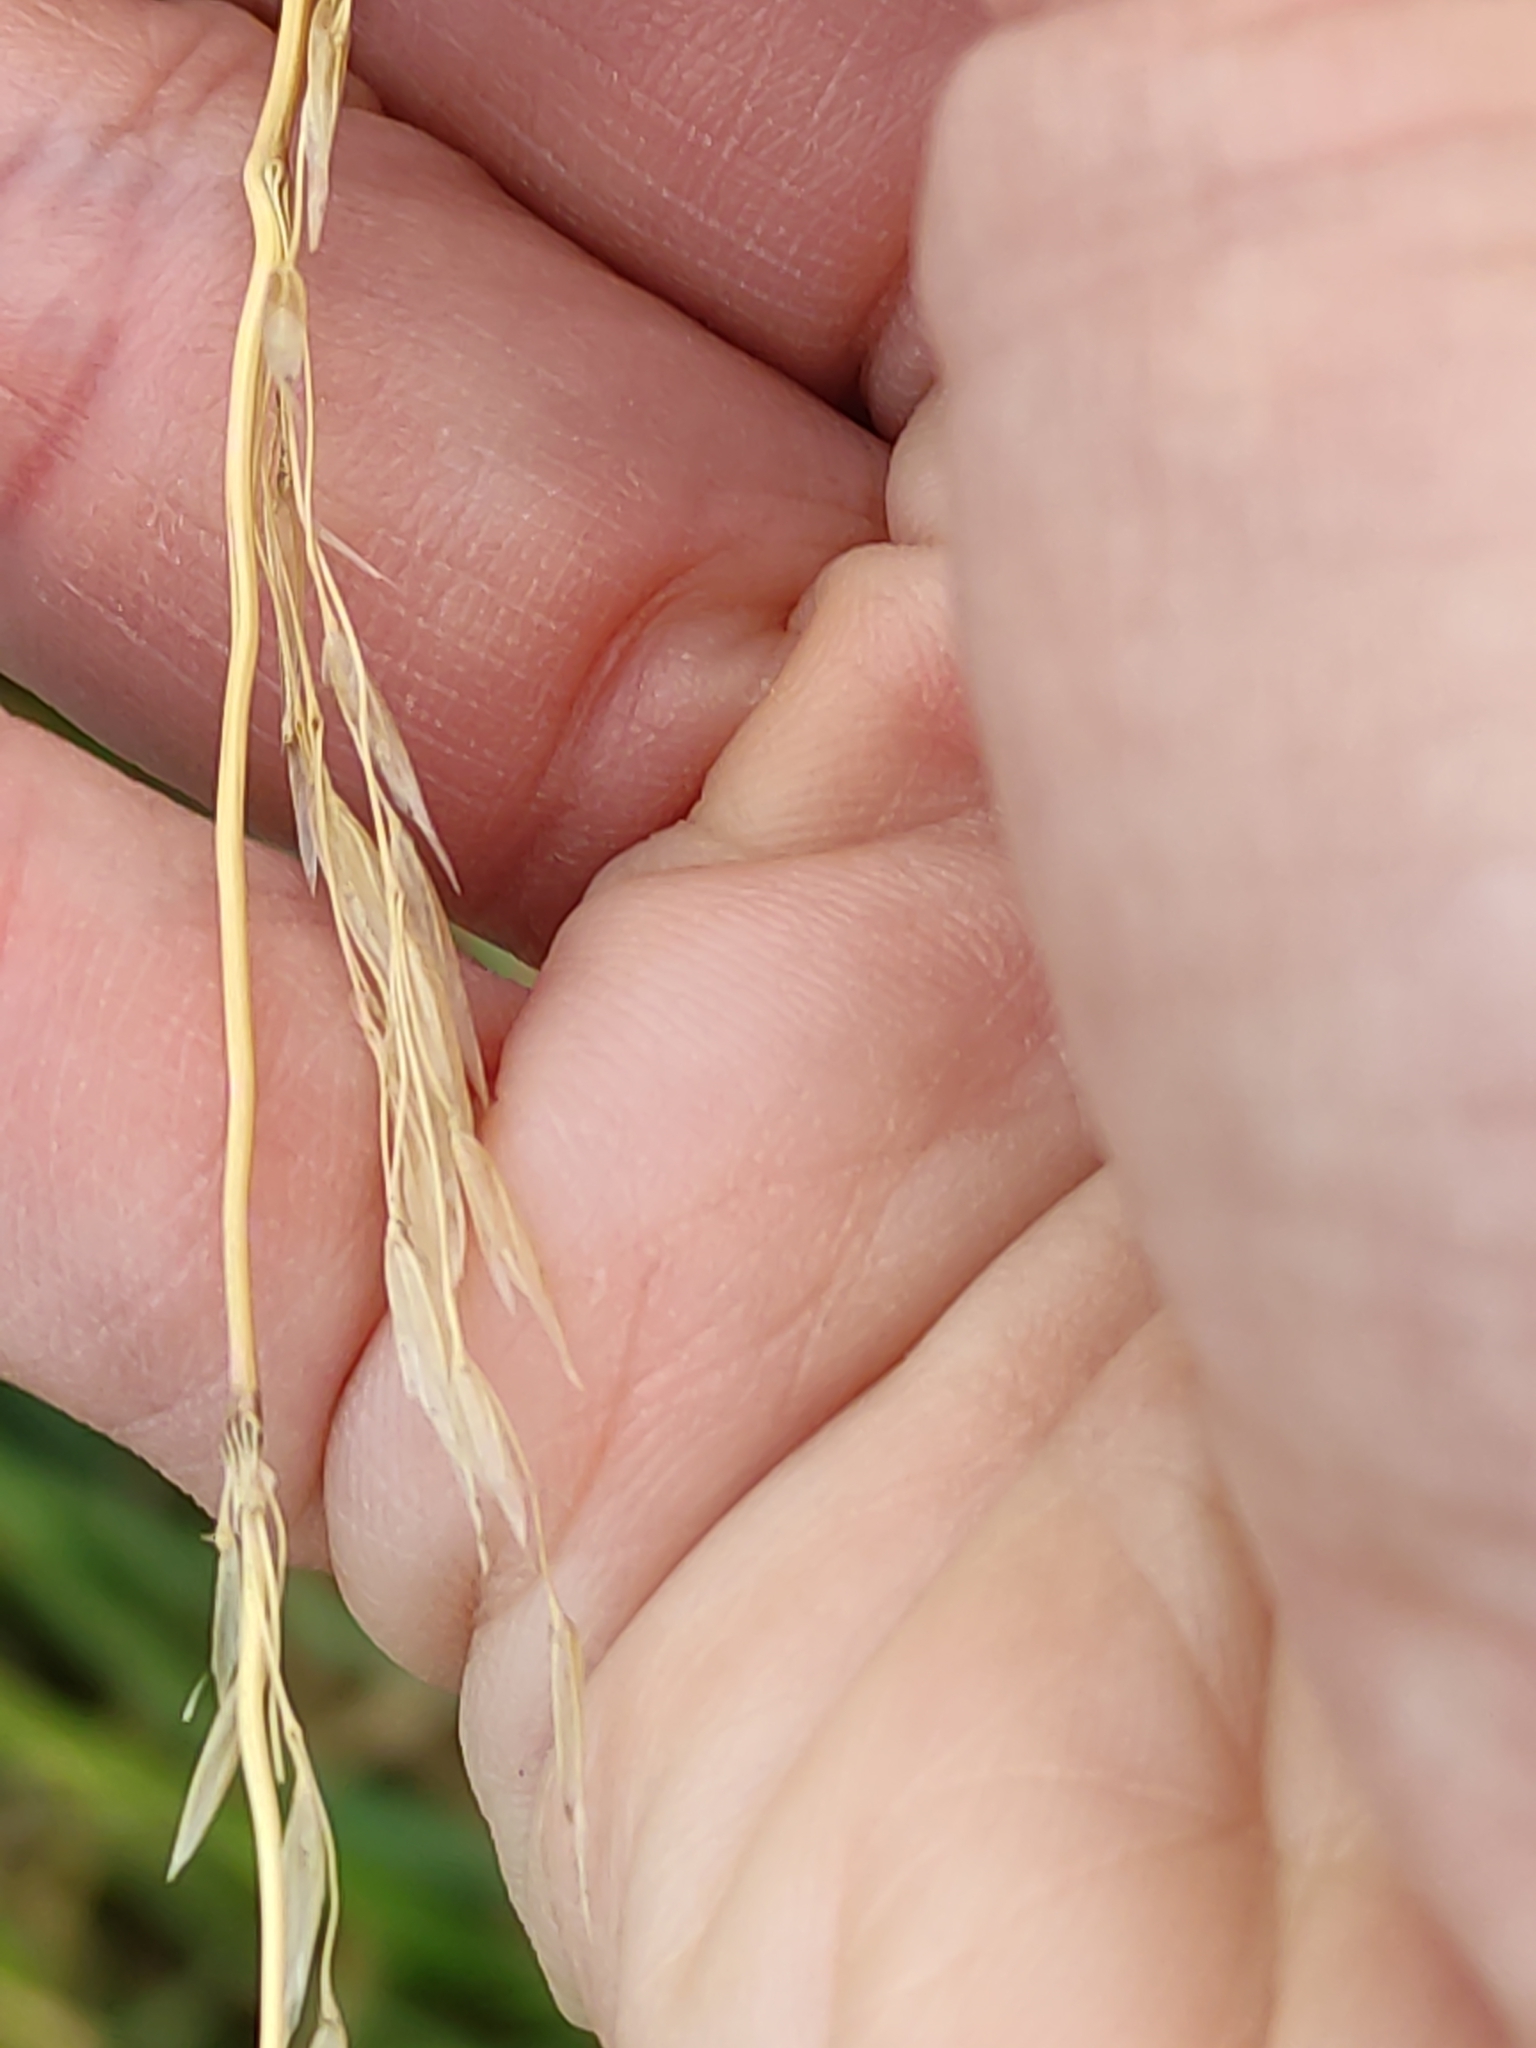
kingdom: Plantae
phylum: Tracheophyta
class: Liliopsida
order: Poales
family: Poaceae
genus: Lolium
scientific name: Lolium arundinaceum
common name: Reed fescue
